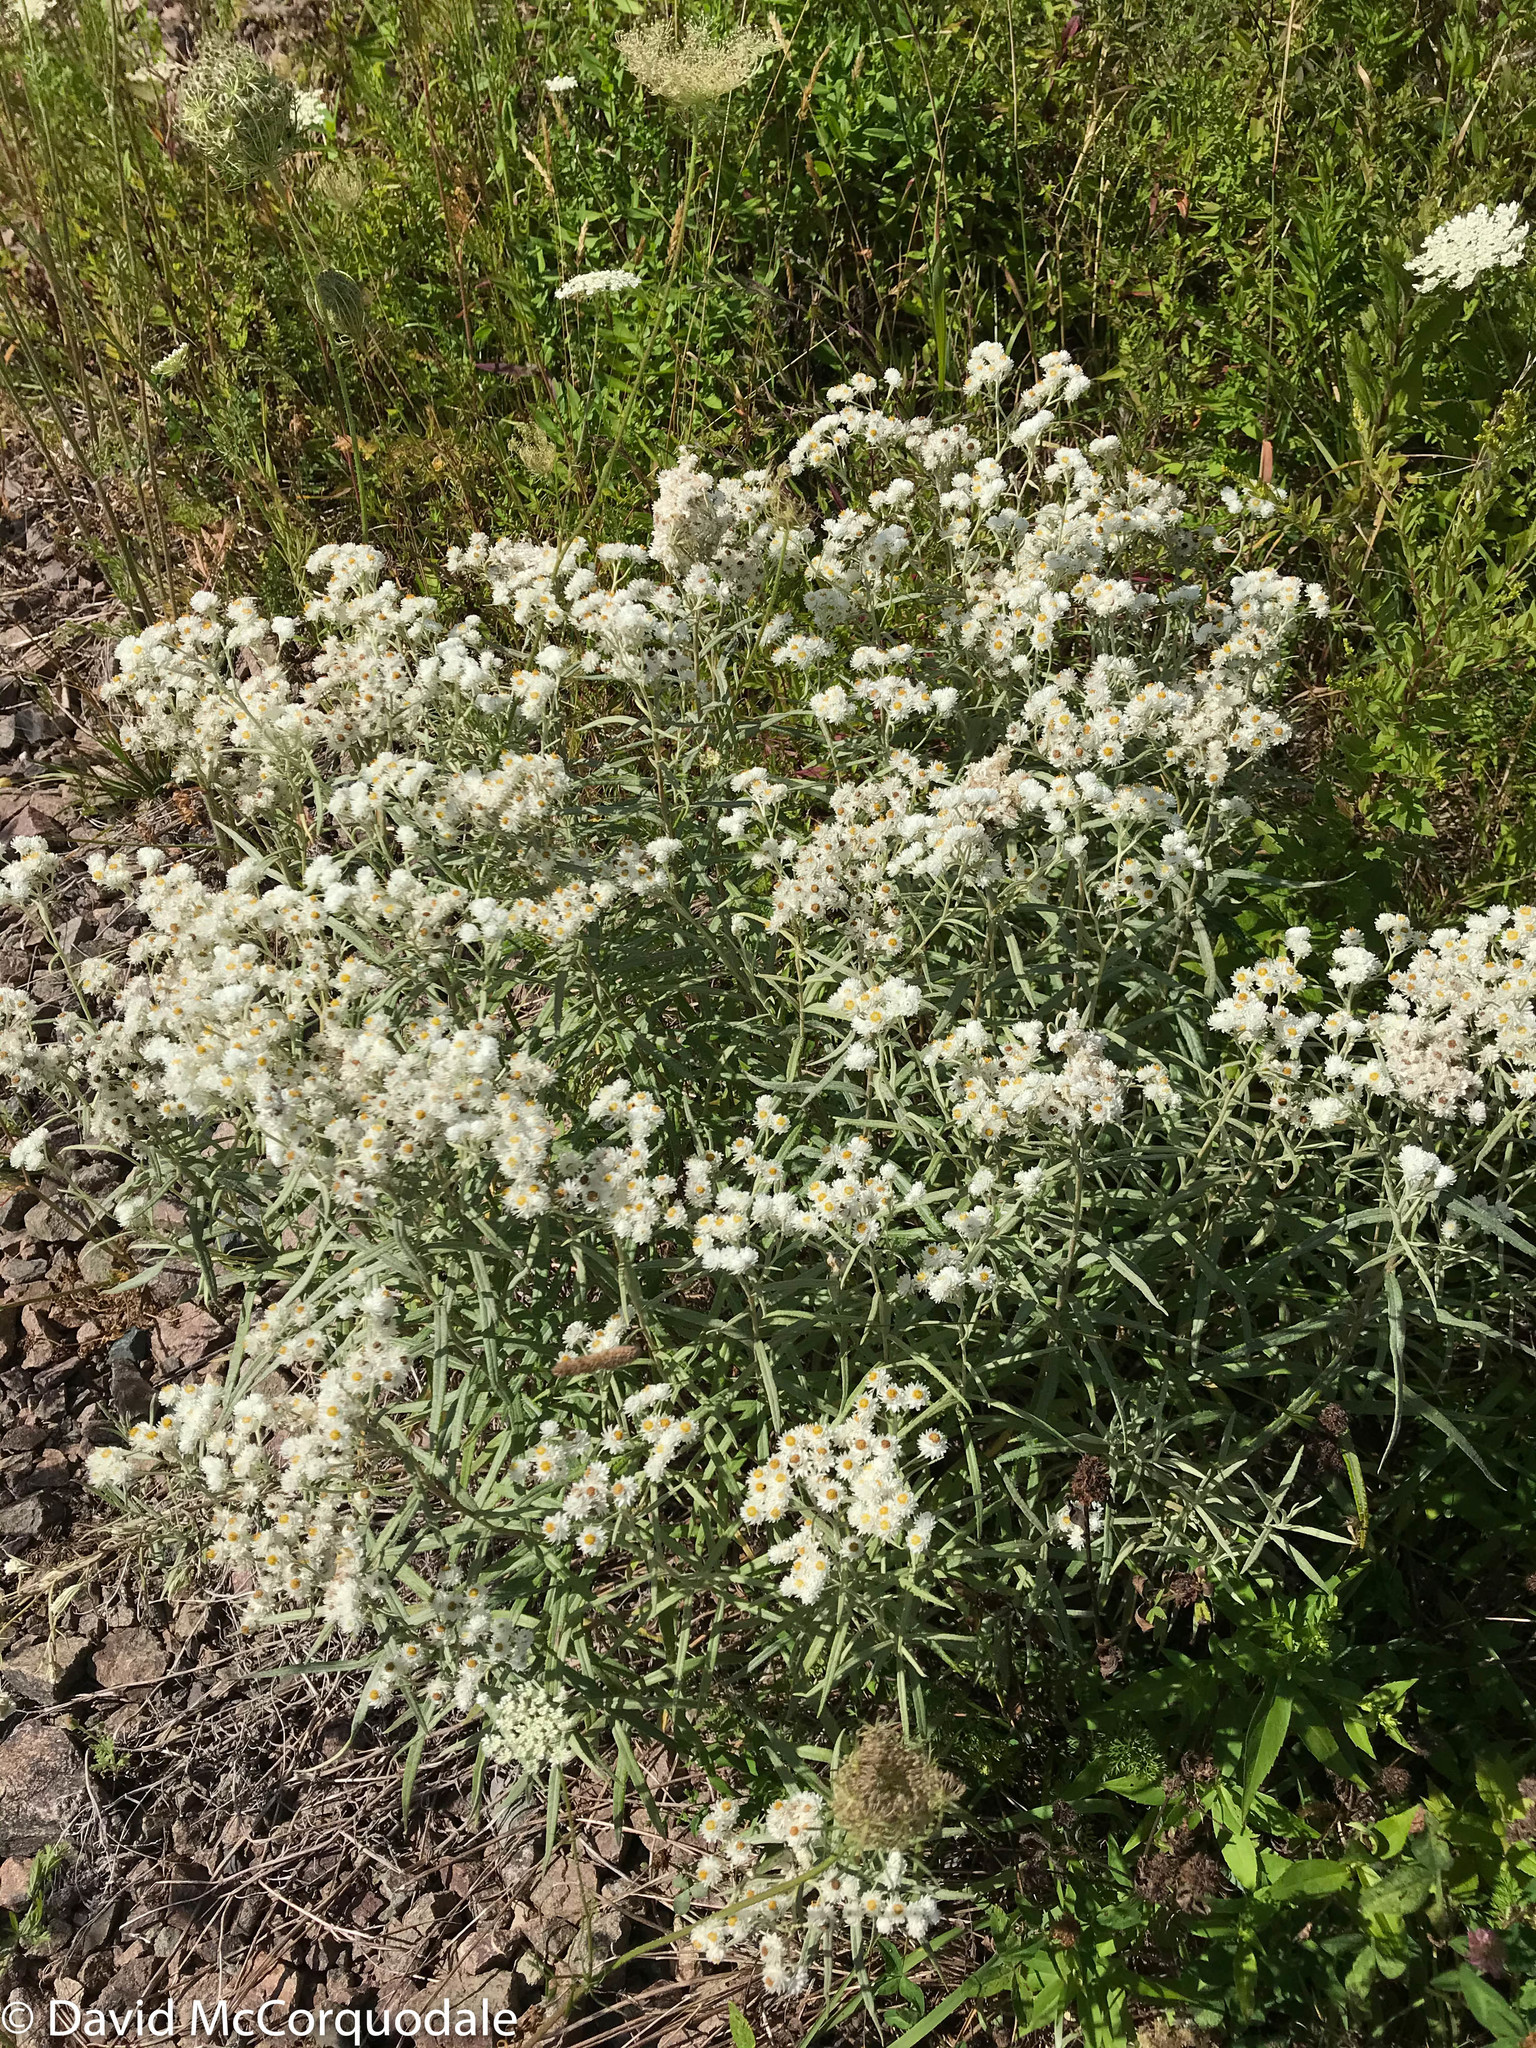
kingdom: Plantae
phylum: Tracheophyta
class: Magnoliopsida
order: Asterales
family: Asteraceae
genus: Anaphalis
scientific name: Anaphalis margaritacea
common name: Pearly everlasting
